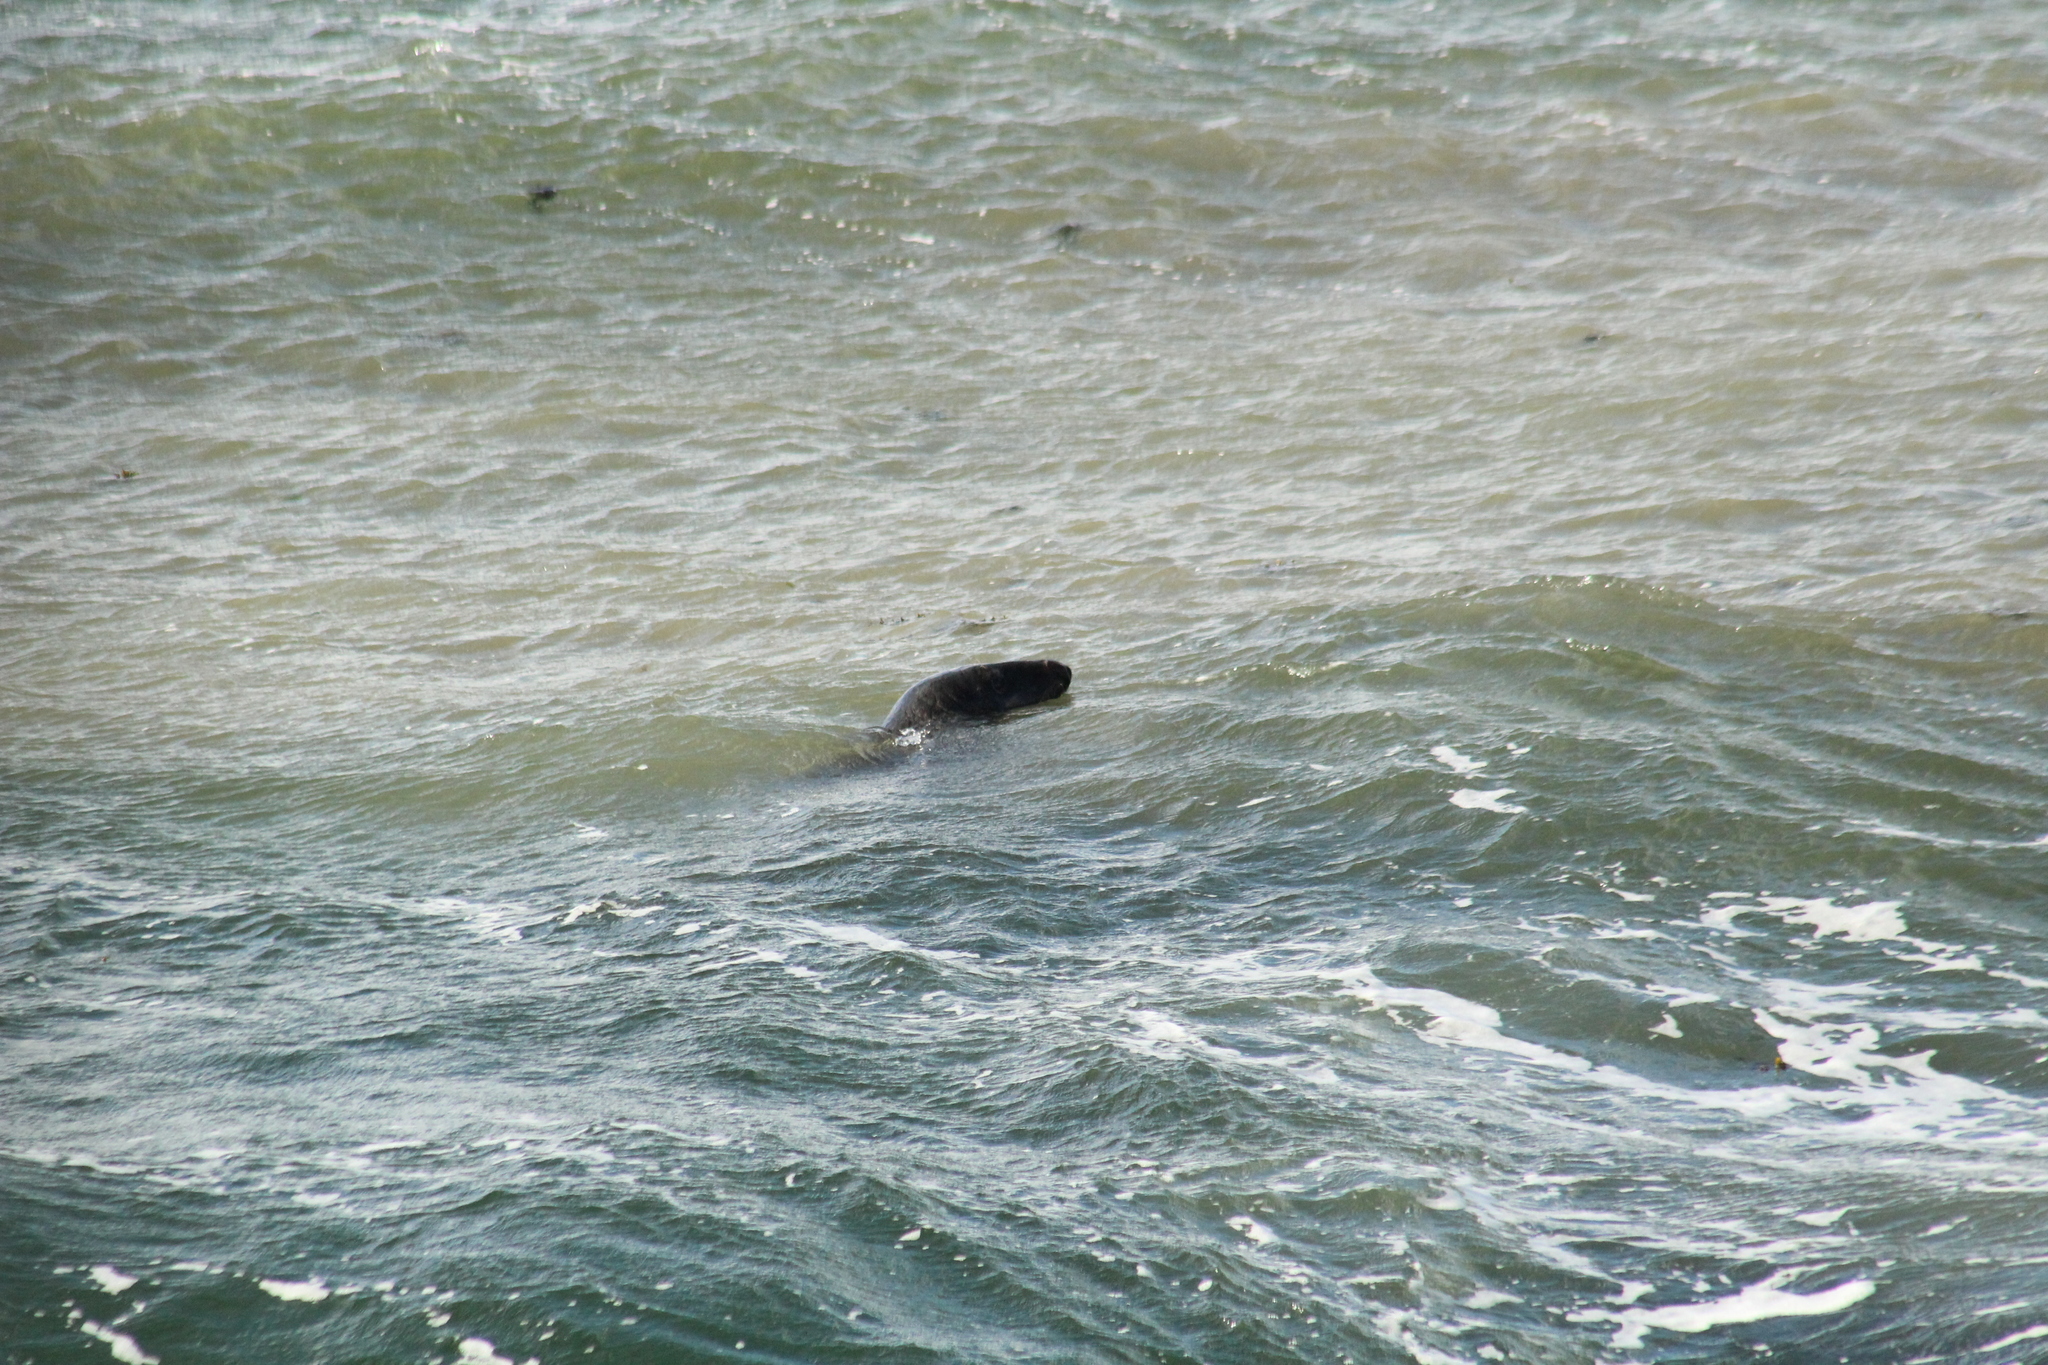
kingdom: Animalia
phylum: Chordata
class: Mammalia
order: Carnivora
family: Phocidae
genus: Halichoerus
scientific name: Halichoerus grypus
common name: Grey seal
